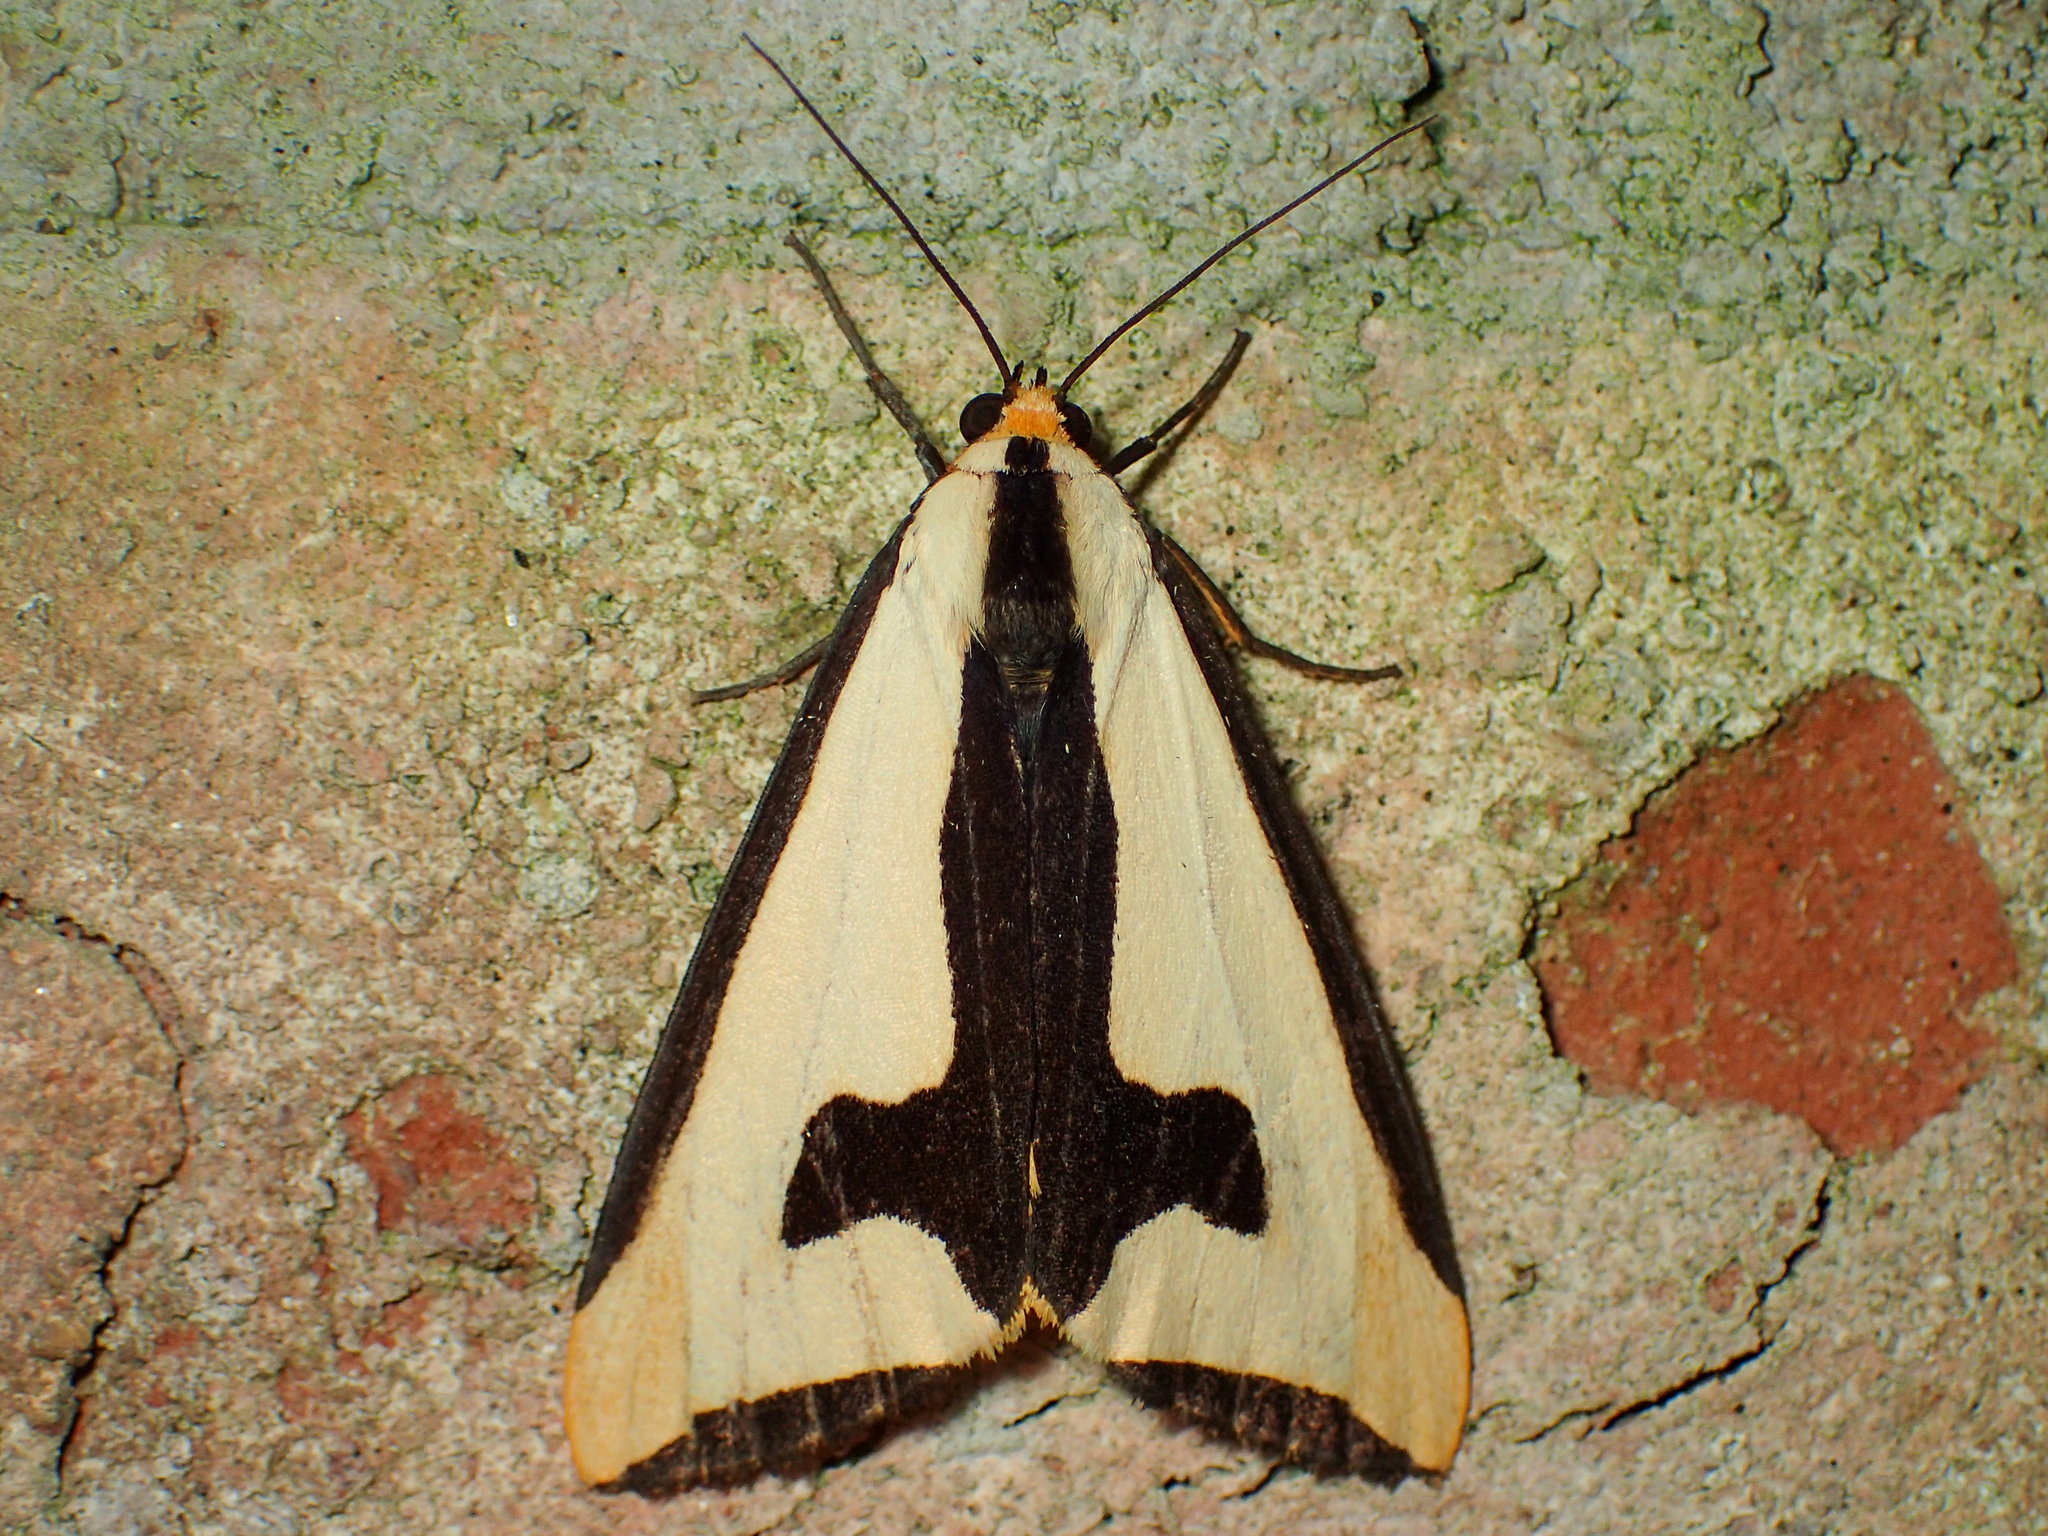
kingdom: Animalia
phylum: Arthropoda
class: Insecta
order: Lepidoptera
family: Erebidae
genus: Haploa
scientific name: Haploa clymene
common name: Clymene moth
